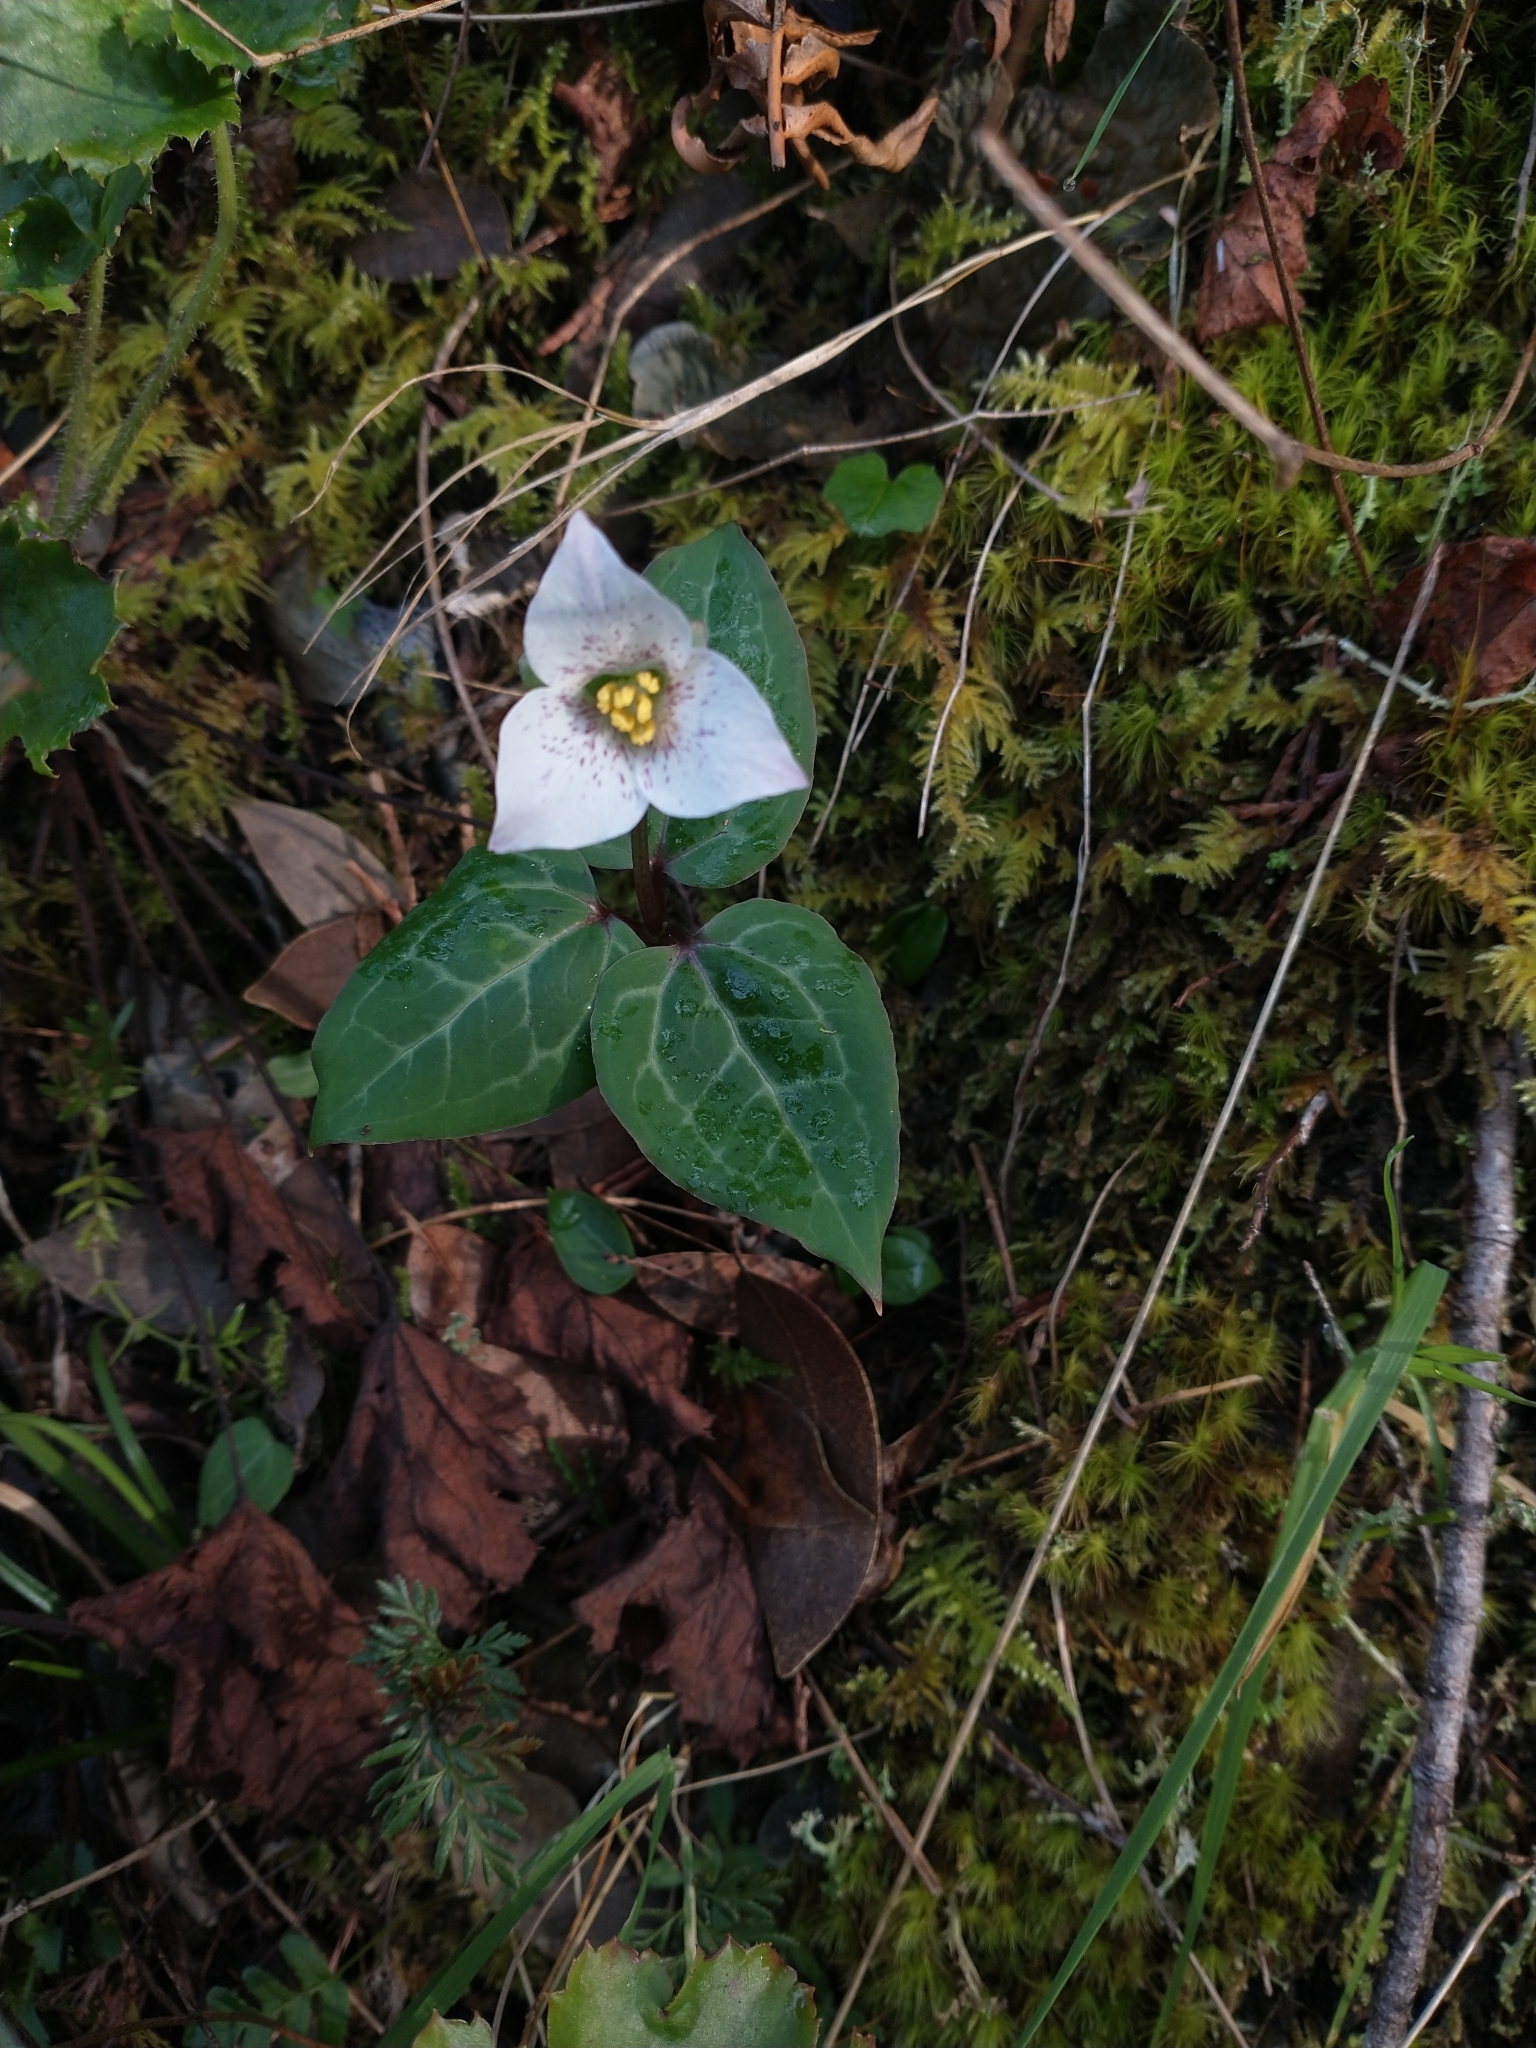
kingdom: Plantae
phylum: Tracheophyta
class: Liliopsida
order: Liliales
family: Melanthiaceae
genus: Pseudotrillium
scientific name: Pseudotrillium rivale
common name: Brook wakerobin
